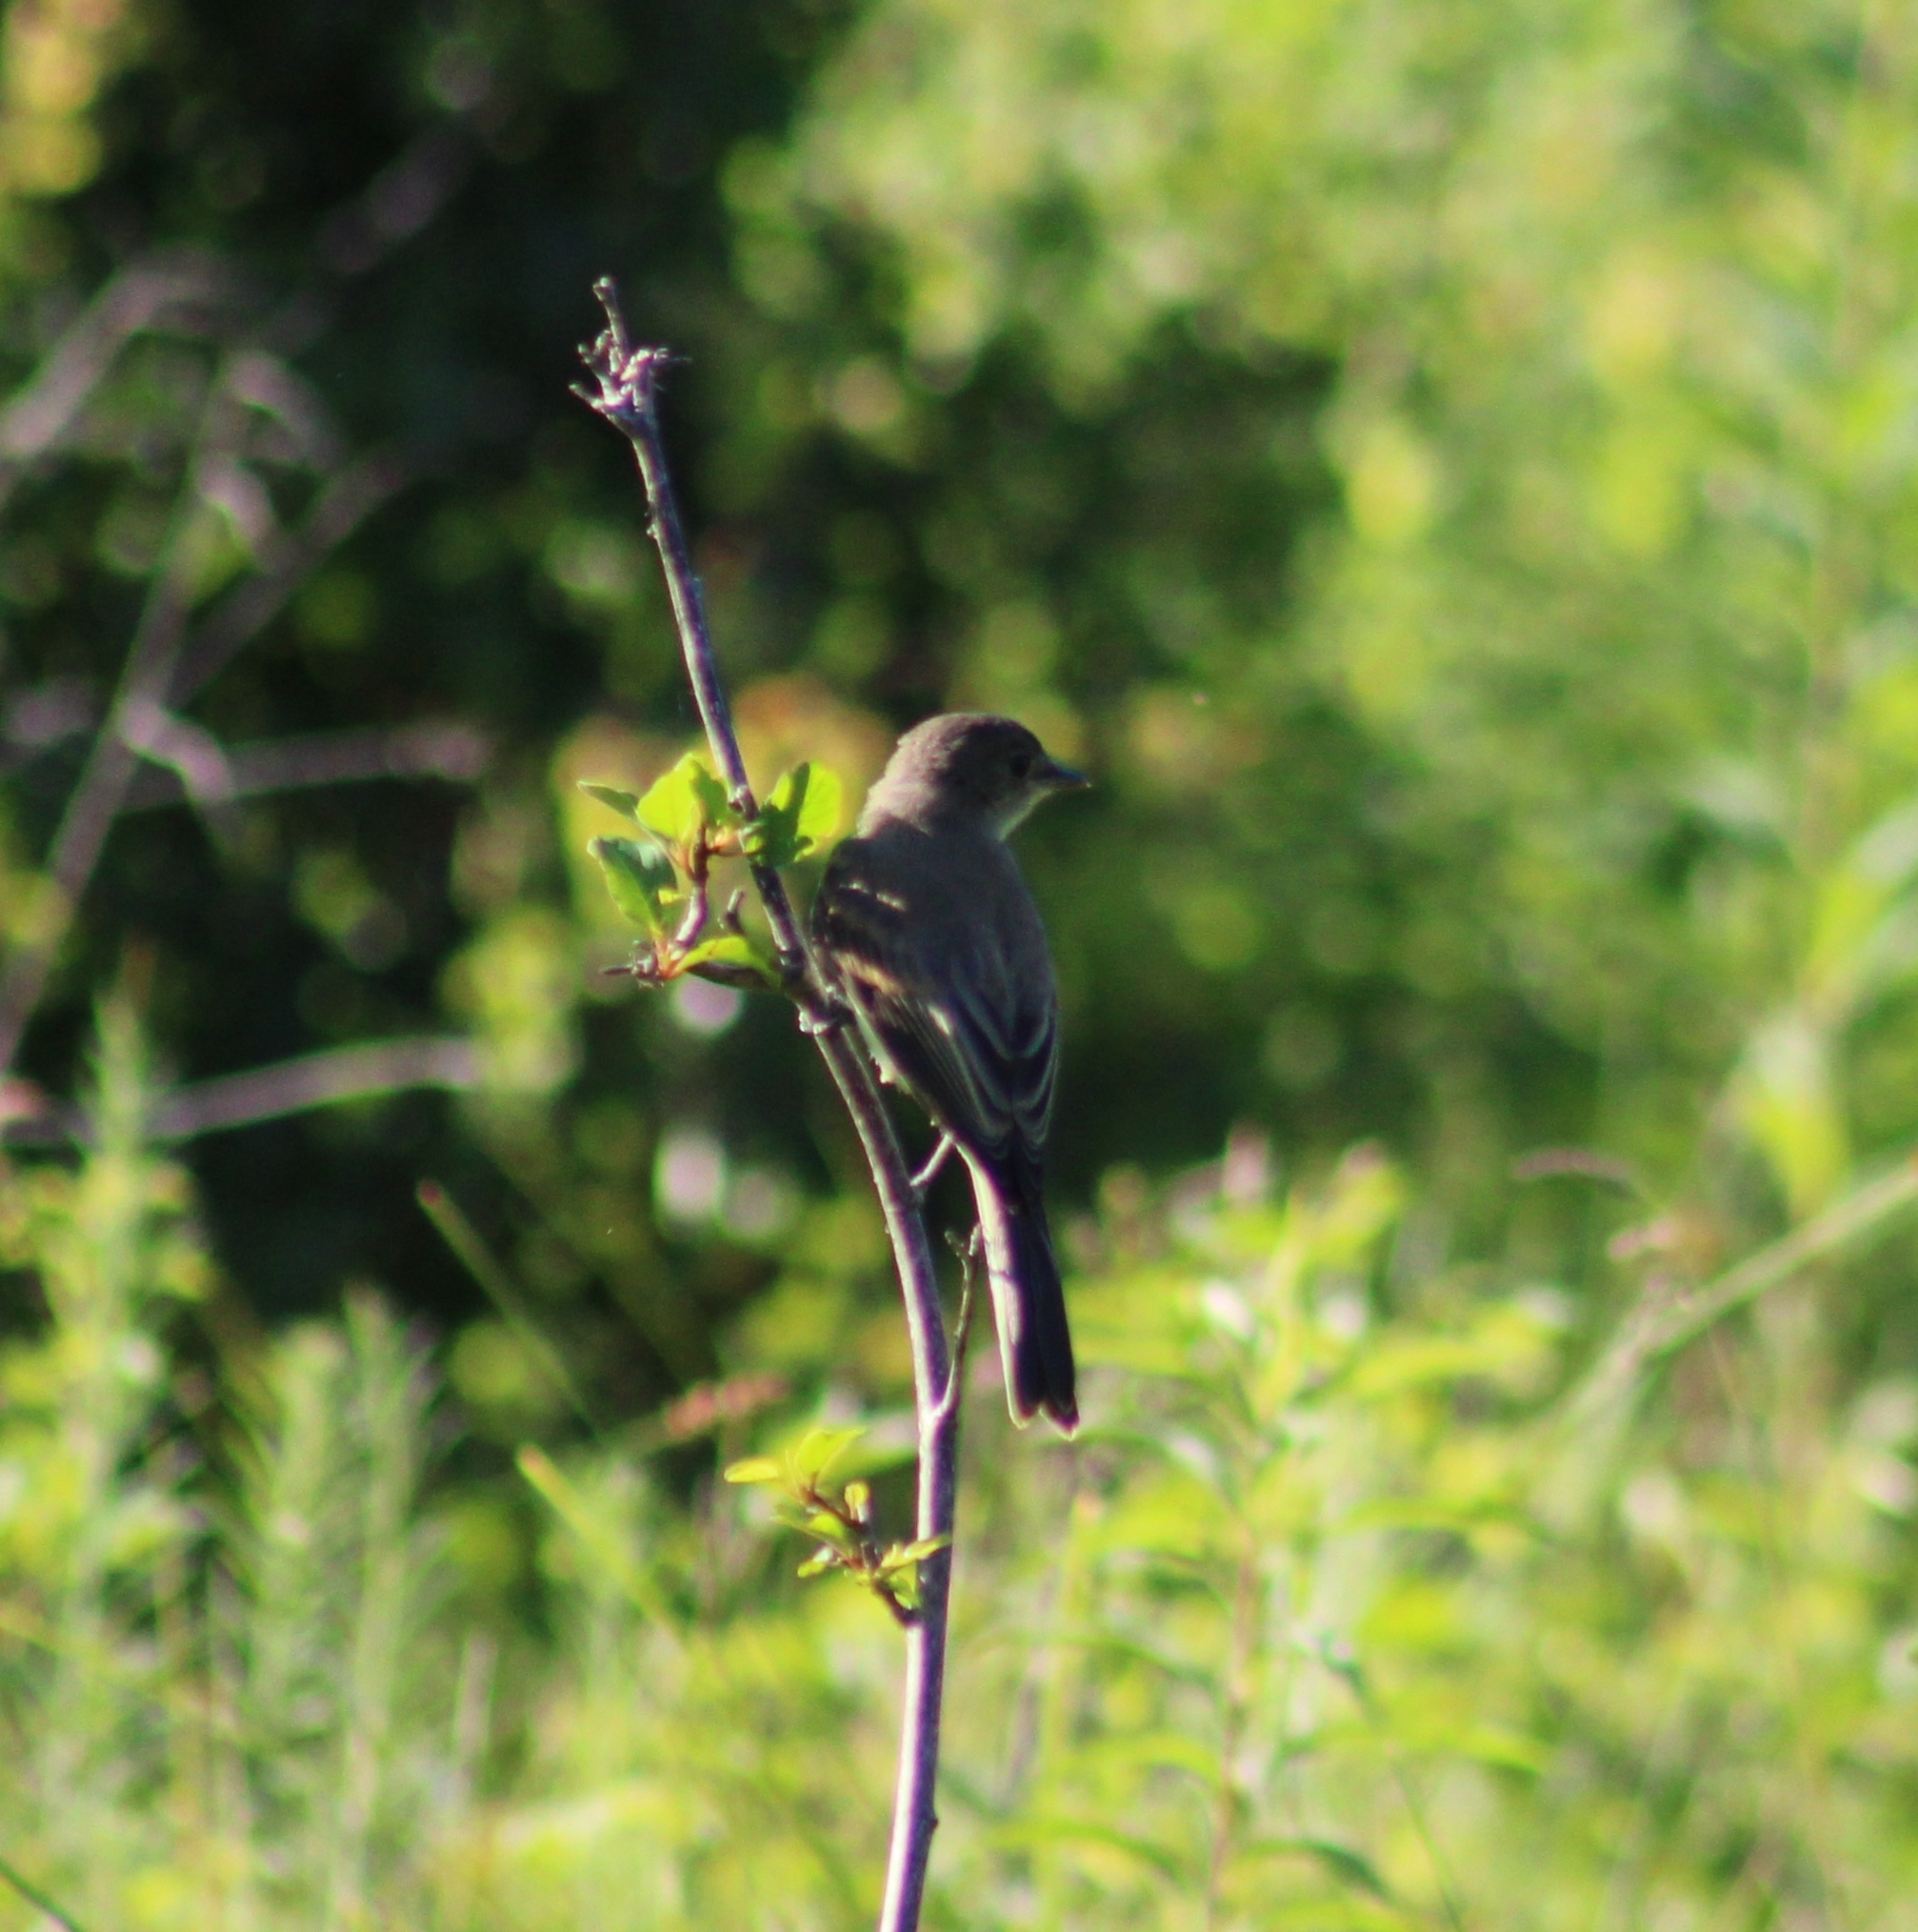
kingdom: Animalia
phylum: Chordata
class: Aves
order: Passeriformes
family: Tyrannidae
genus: Sayornis
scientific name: Sayornis phoebe
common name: Eastern phoebe
